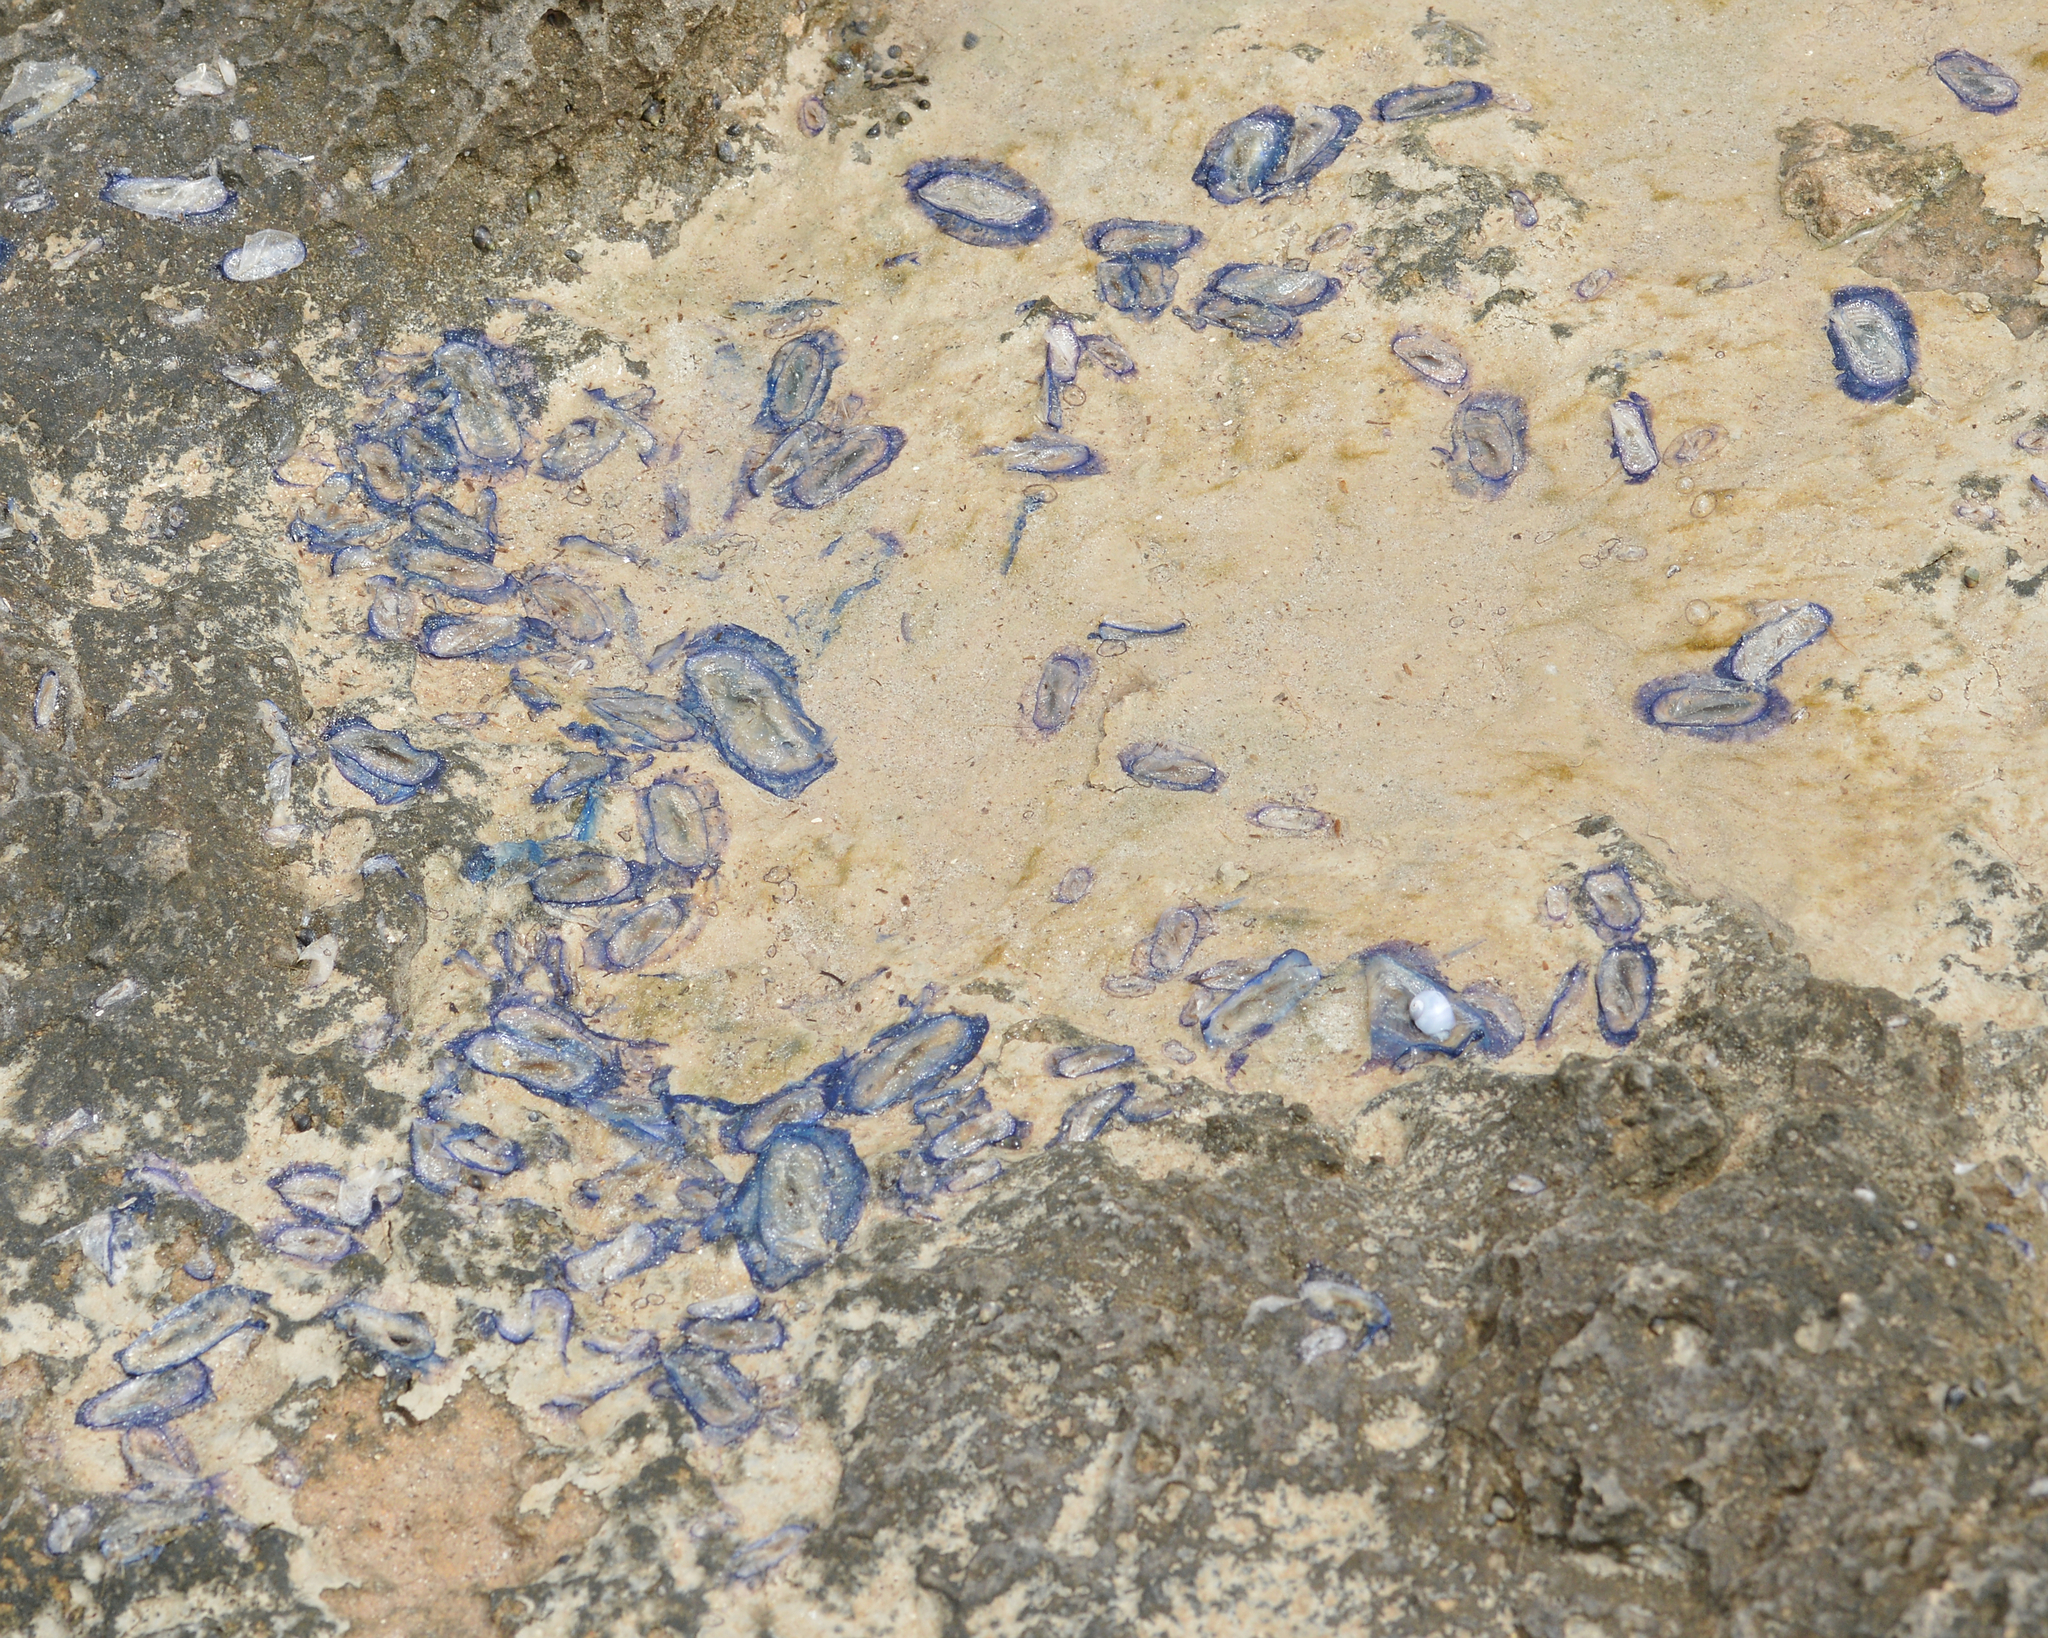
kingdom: Animalia
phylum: Cnidaria
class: Hydrozoa
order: Anthoathecata
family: Porpitidae
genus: Velella
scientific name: Velella velella
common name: By-the-wind-sailor
